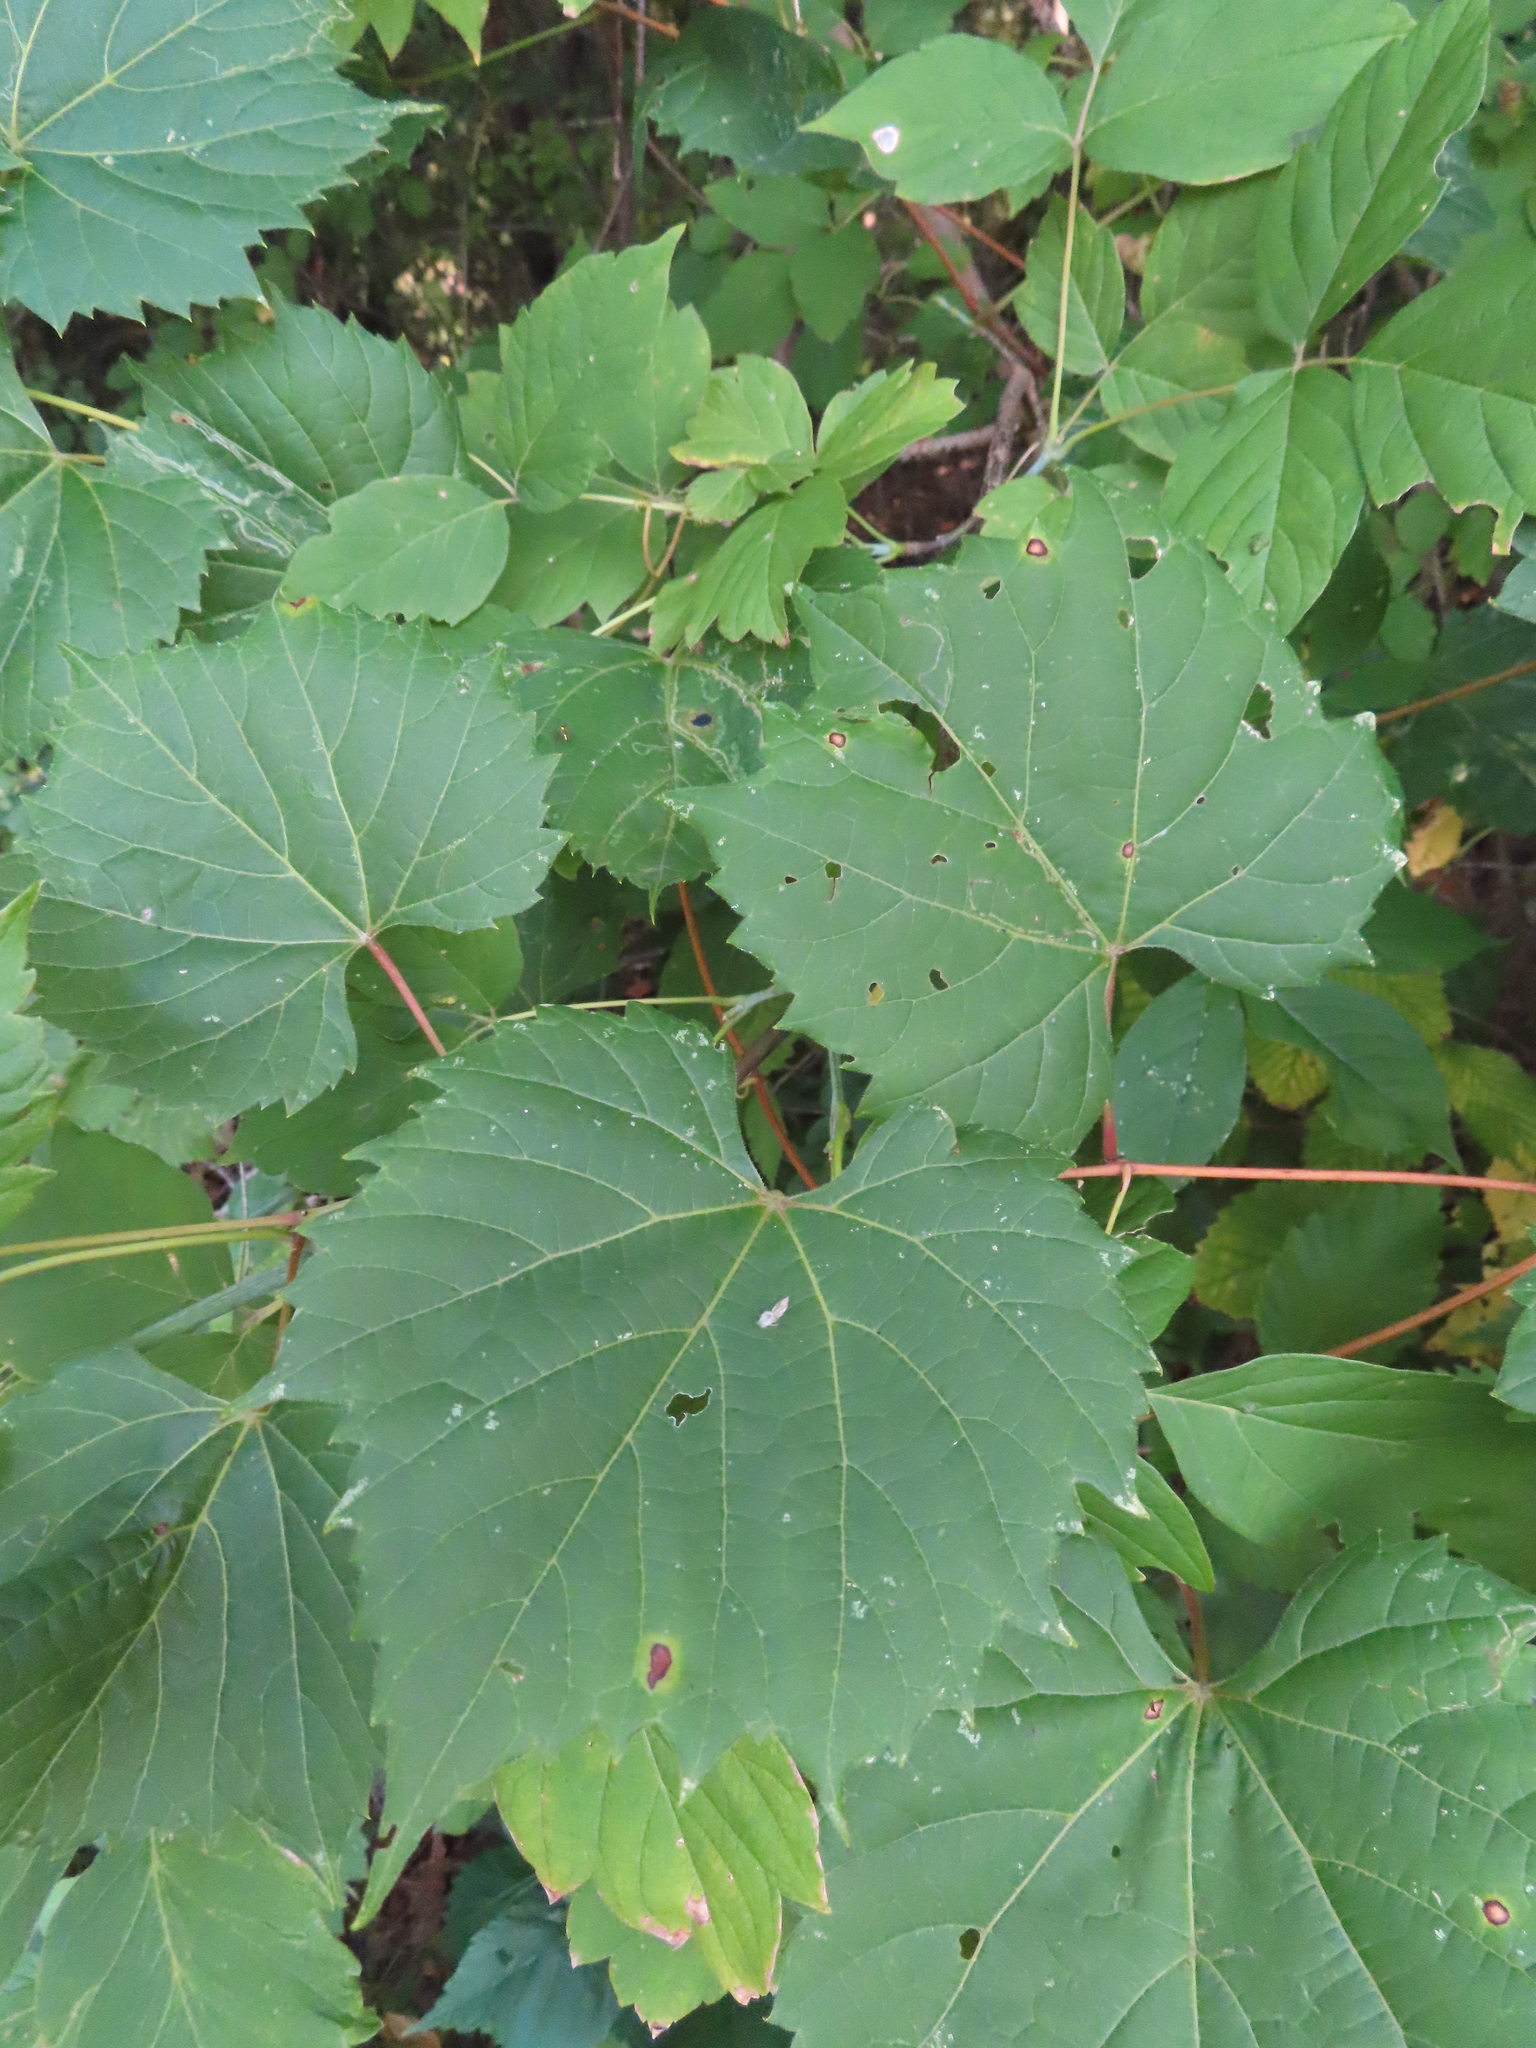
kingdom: Plantae
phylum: Tracheophyta
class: Magnoliopsida
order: Vitales
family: Vitaceae
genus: Vitis
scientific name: Vitis riparia
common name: Frost grape
